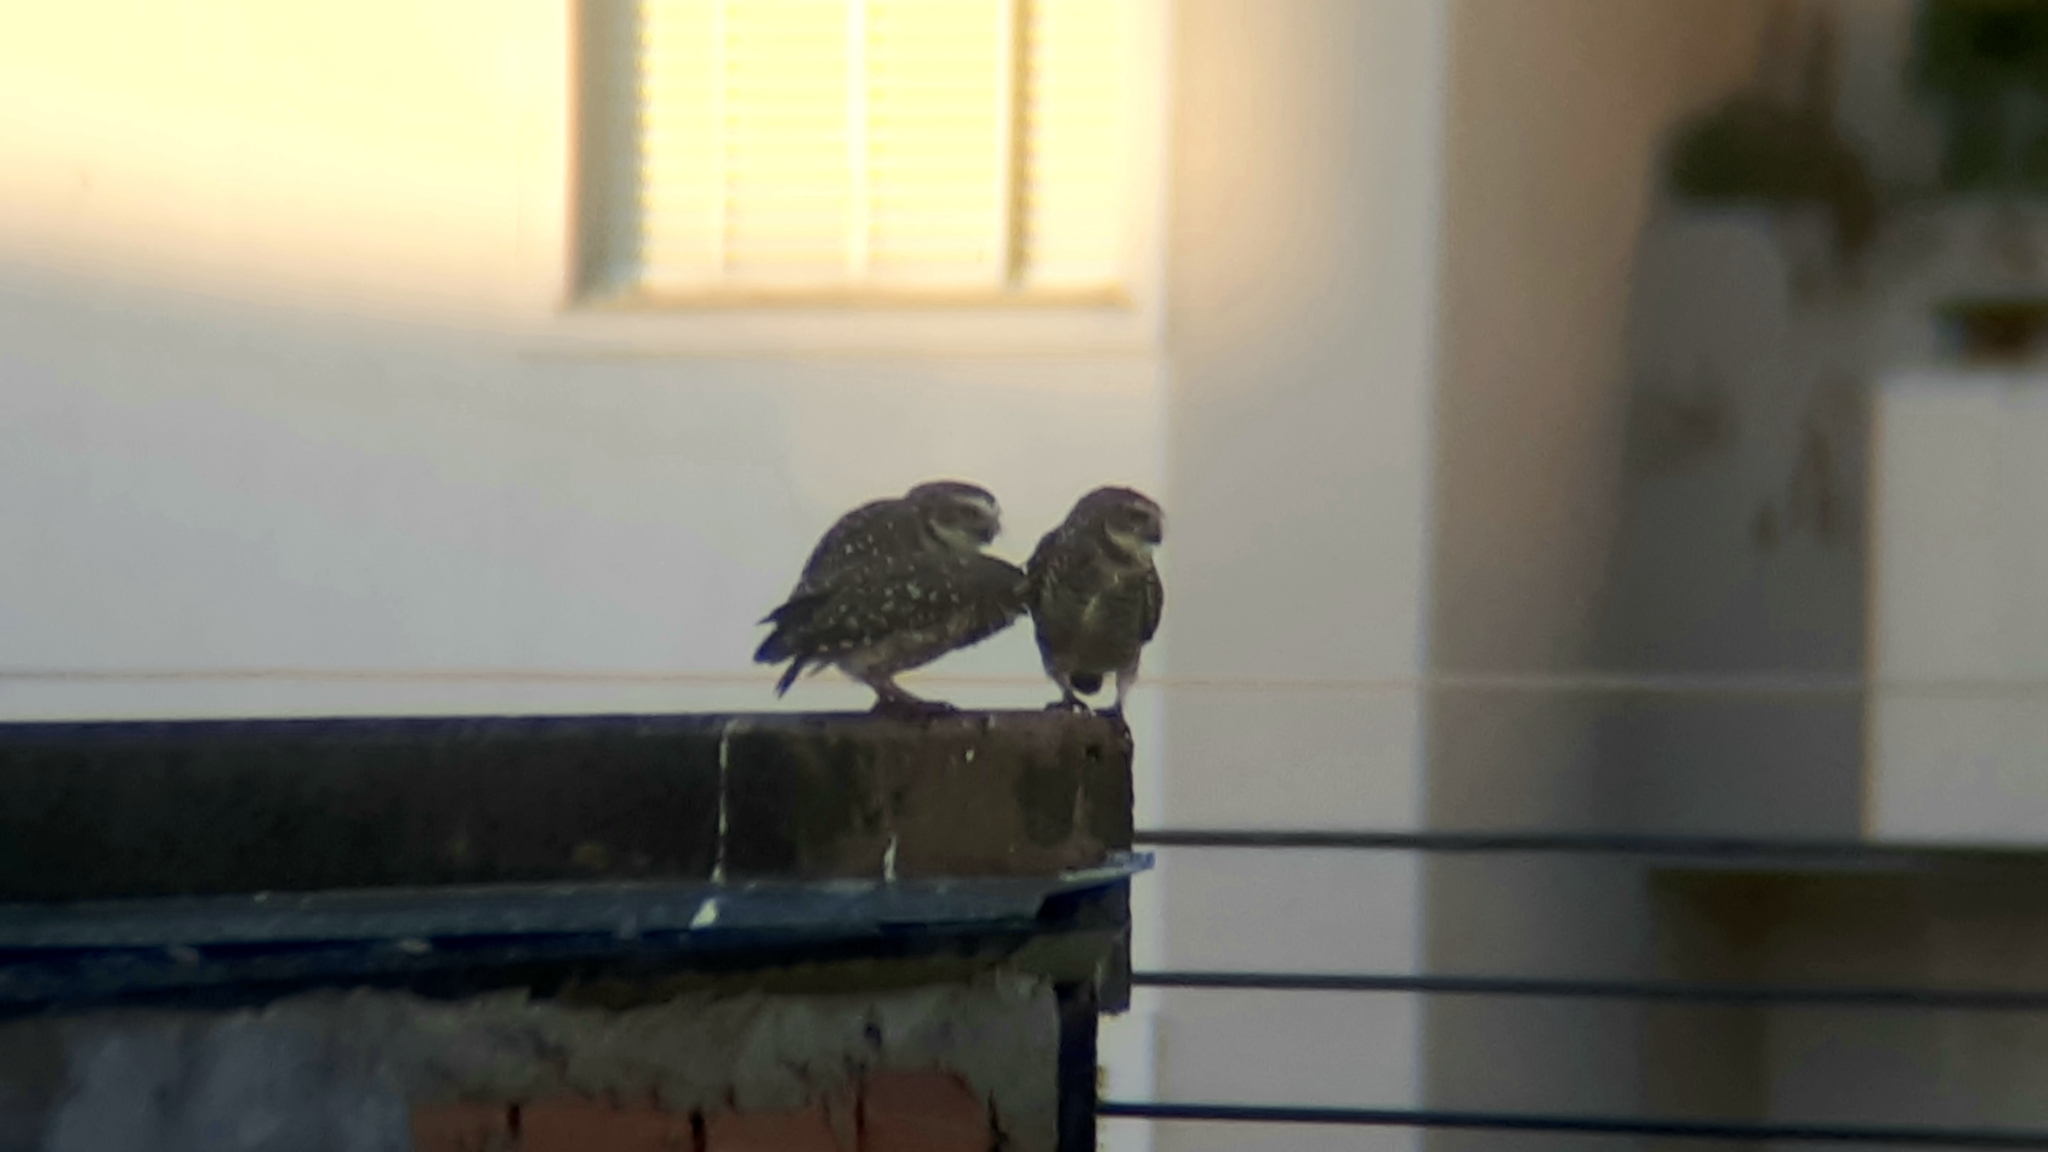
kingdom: Animalia
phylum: Chordata
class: Aves
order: Strigiformes
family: Strigidae
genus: Athene
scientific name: Athene cunicularia
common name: Burrowing owl
